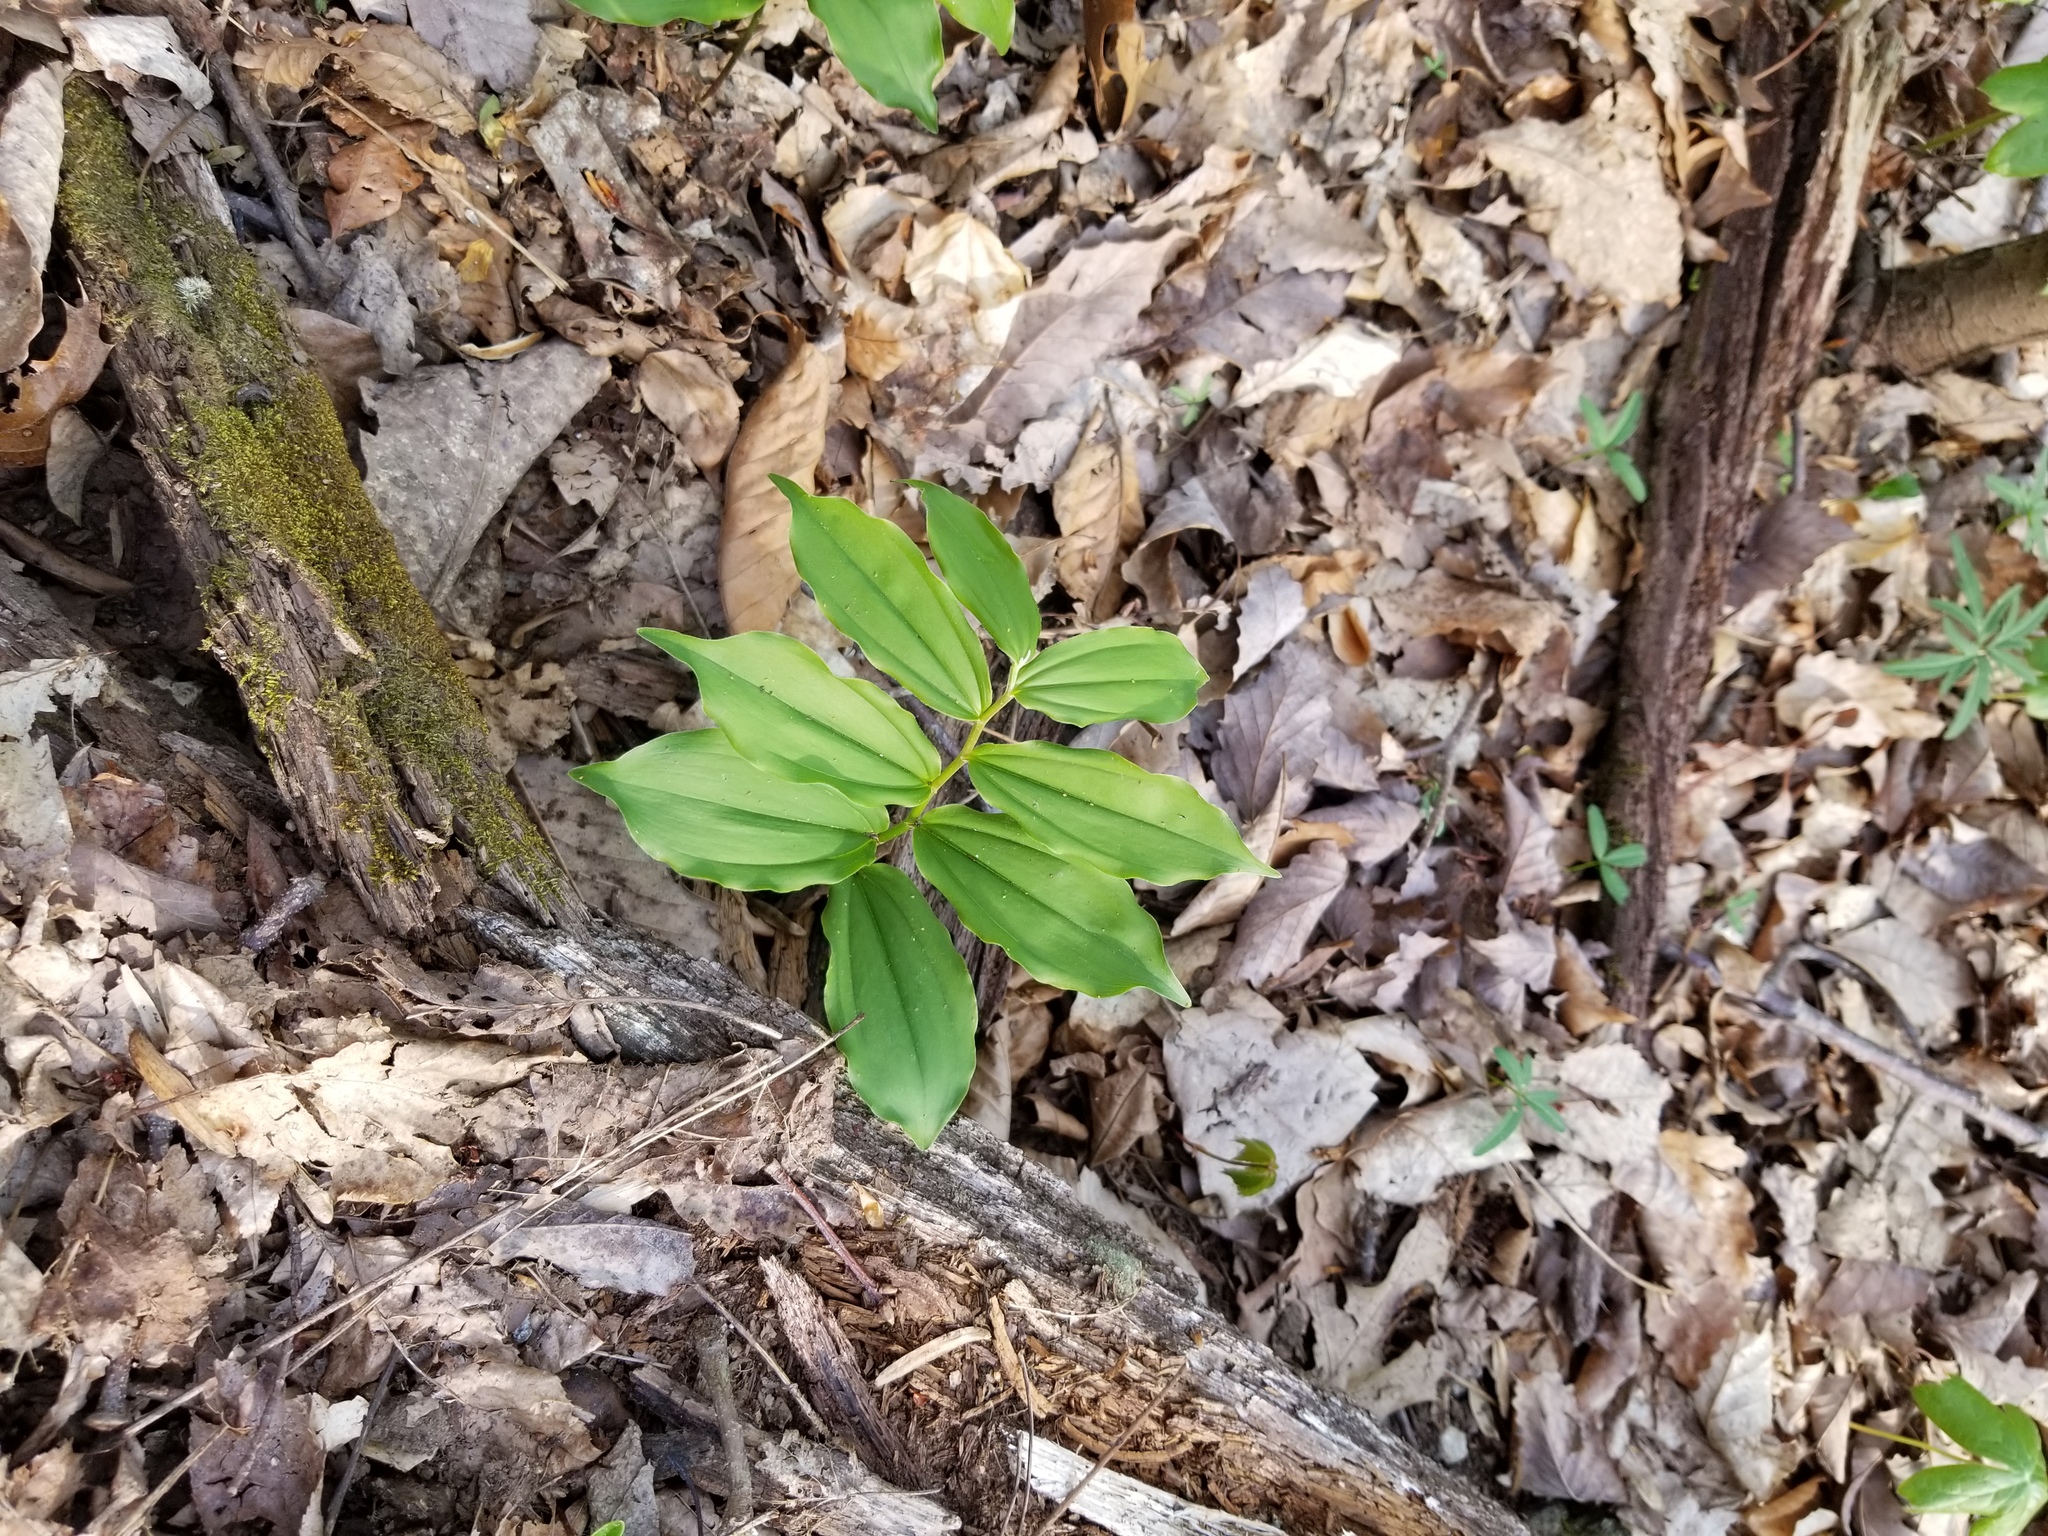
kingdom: Plantae
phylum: Tracheophyta
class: Liliopsida
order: Asparagales
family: Asparagaceae
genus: Maianthemum
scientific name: Maianthemum racemosum
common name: False spikenard
